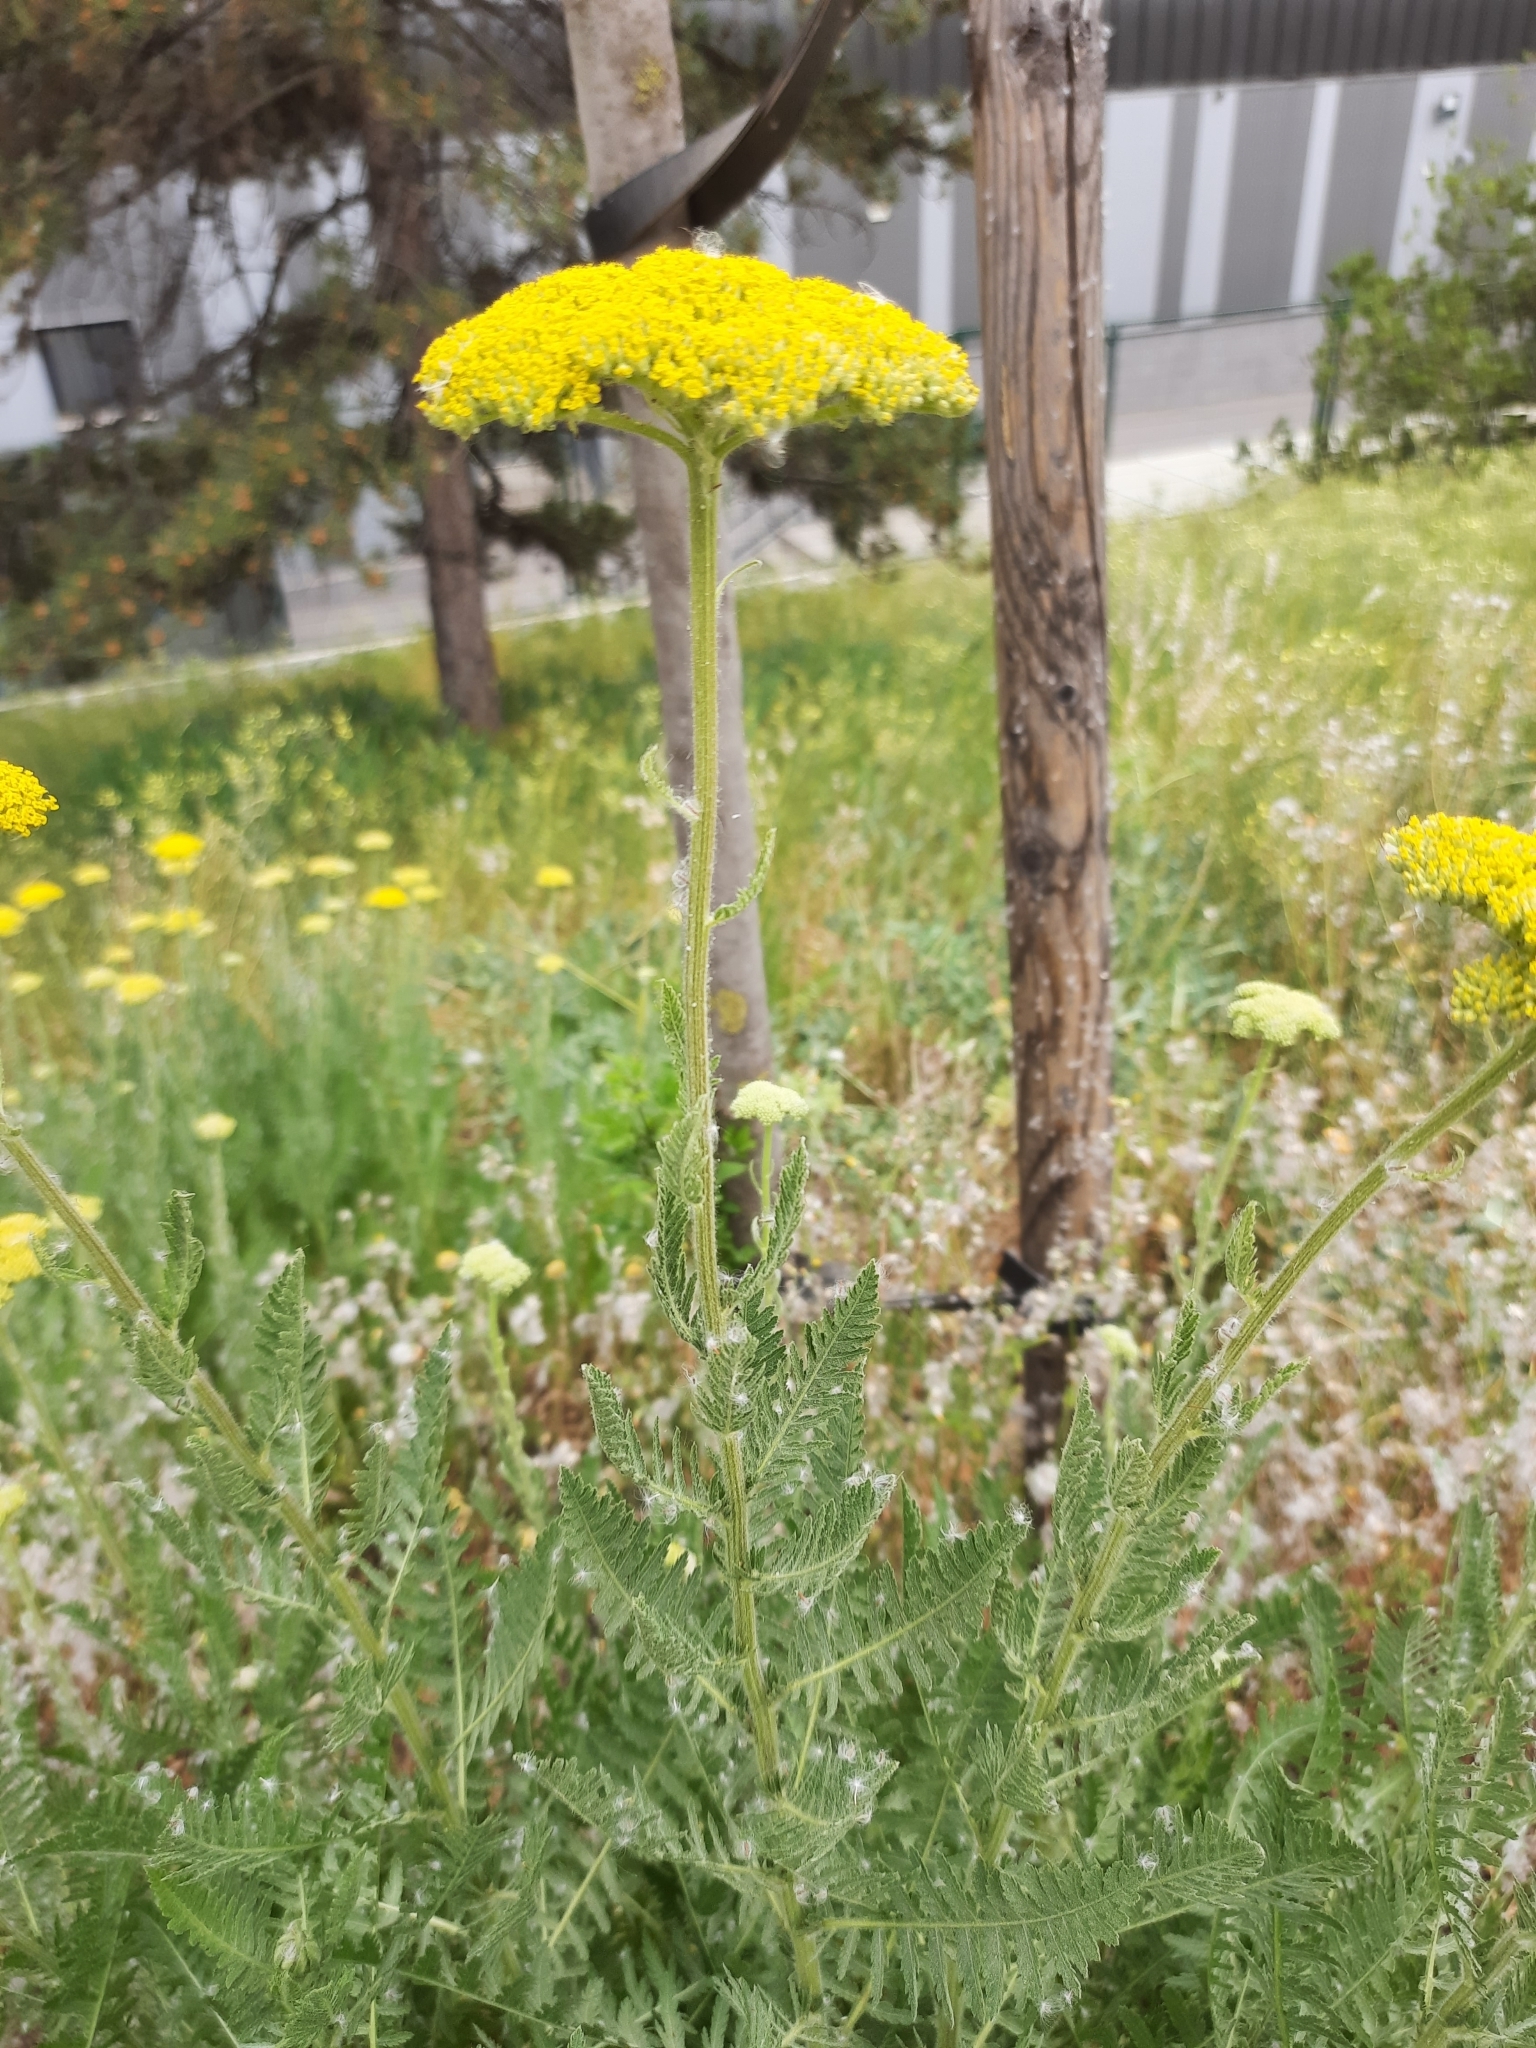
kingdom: Plantae
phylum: Tracheophyta
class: Magnoliopsida
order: Asterales
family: Asteraceae
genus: Achillea
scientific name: Achillea filipendulina
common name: Fernleaf yarrow
